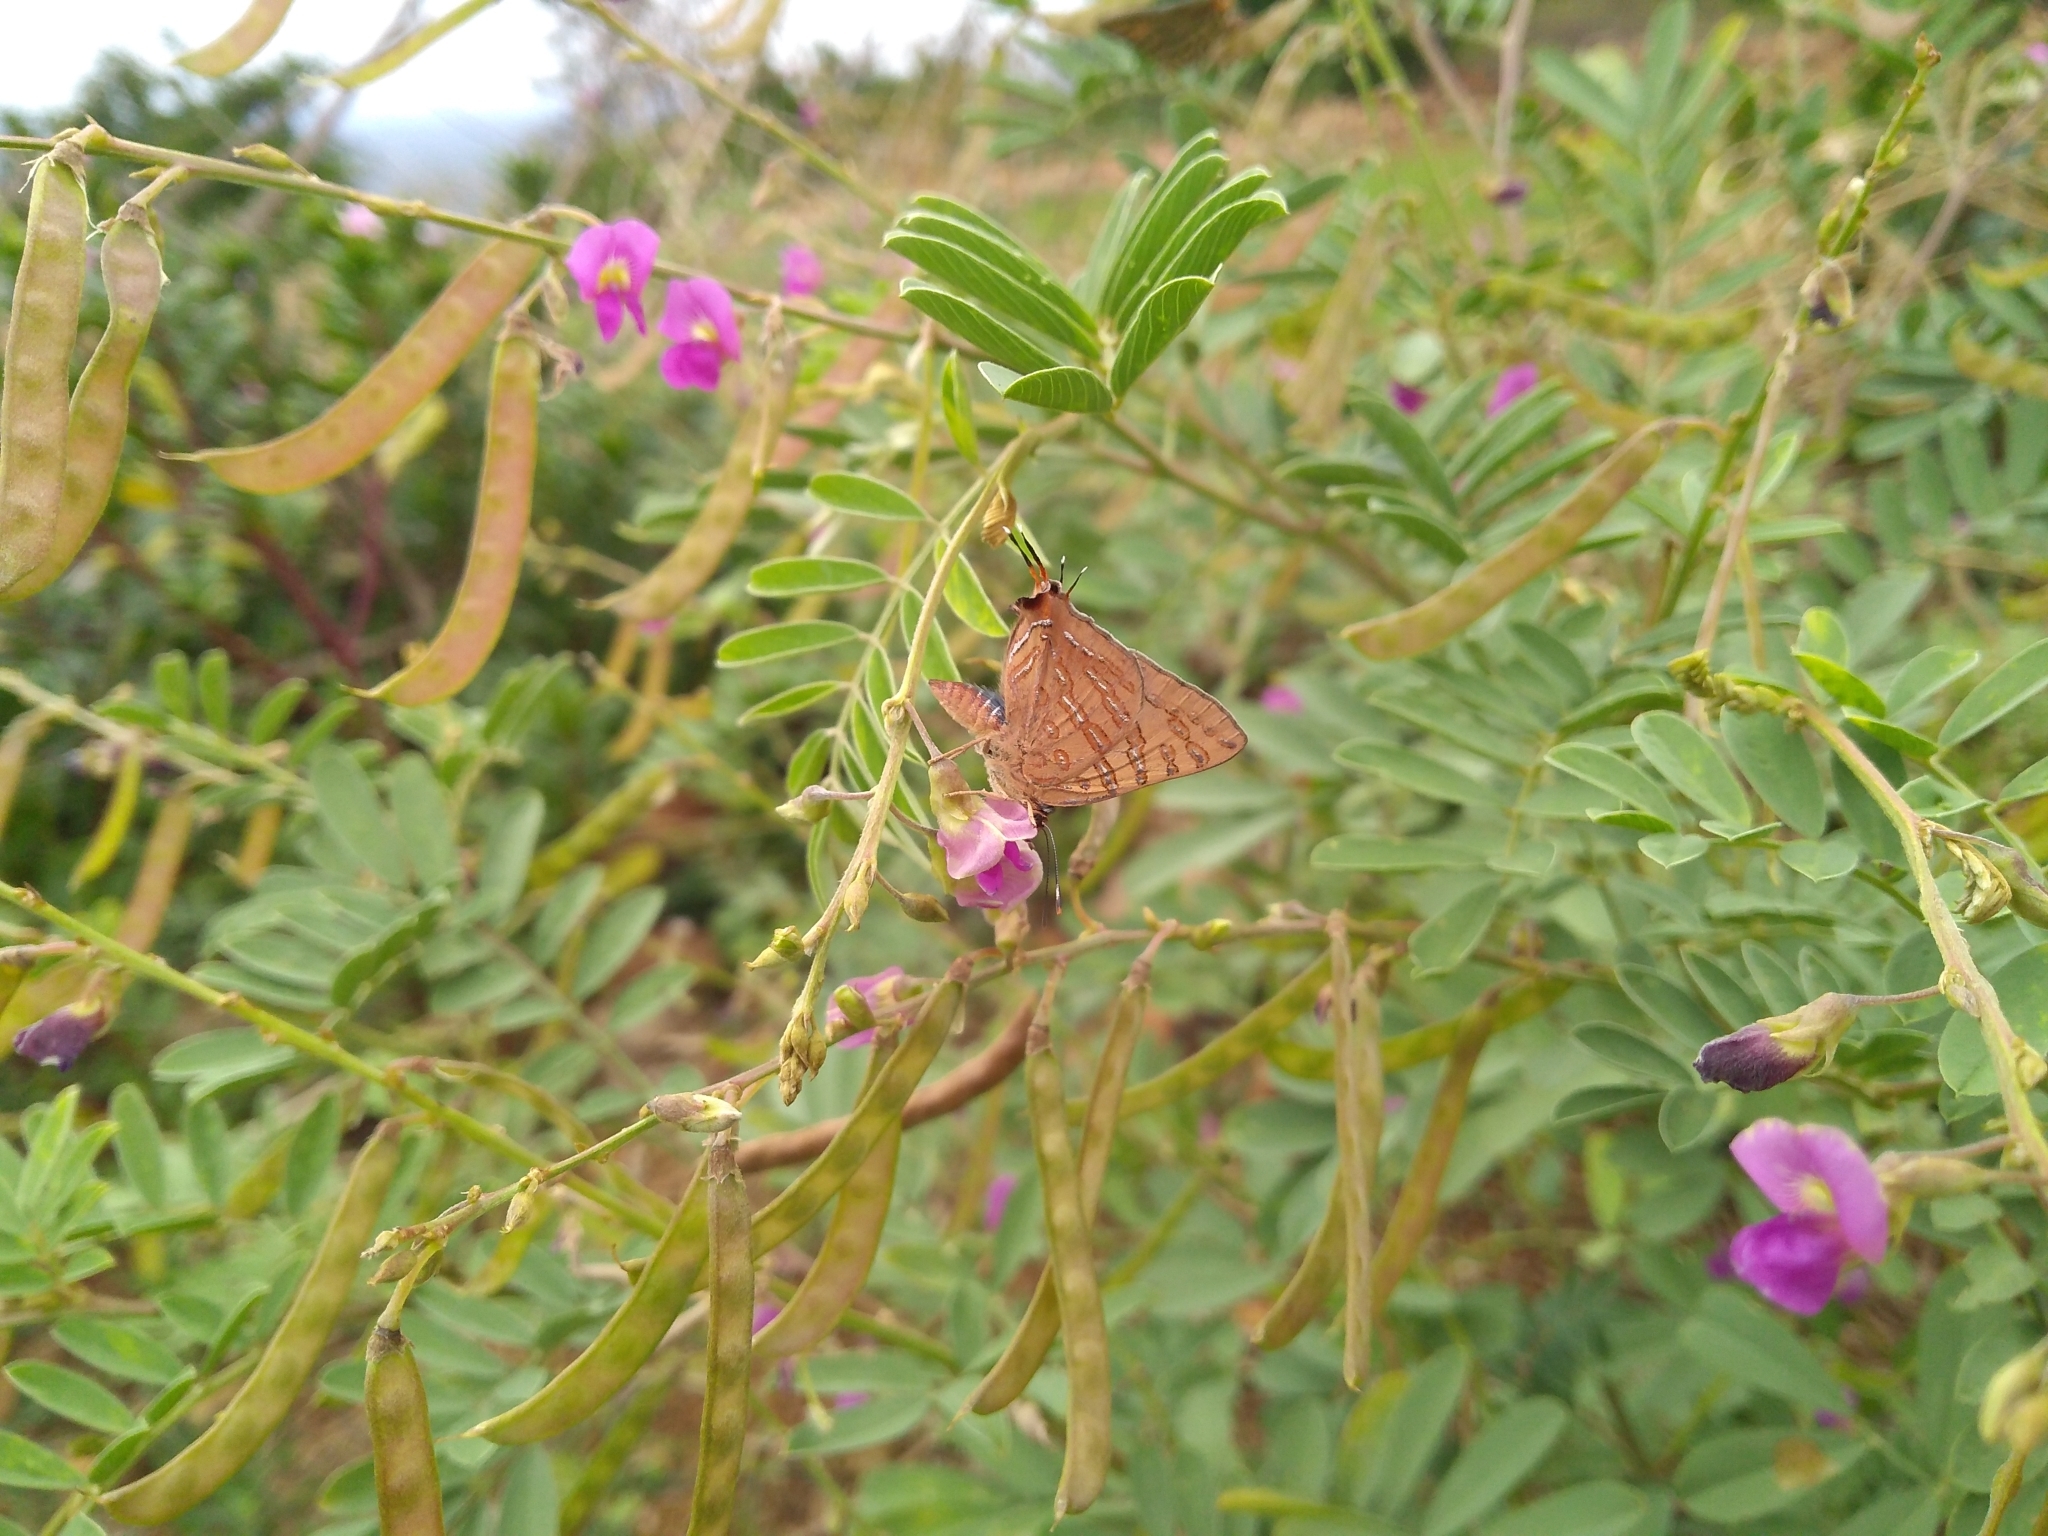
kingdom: Animalia
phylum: Arthropoda
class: Insecta
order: Lepidoptera
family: Lycaenidae
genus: Cigaritis
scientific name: Cigaritis elima
